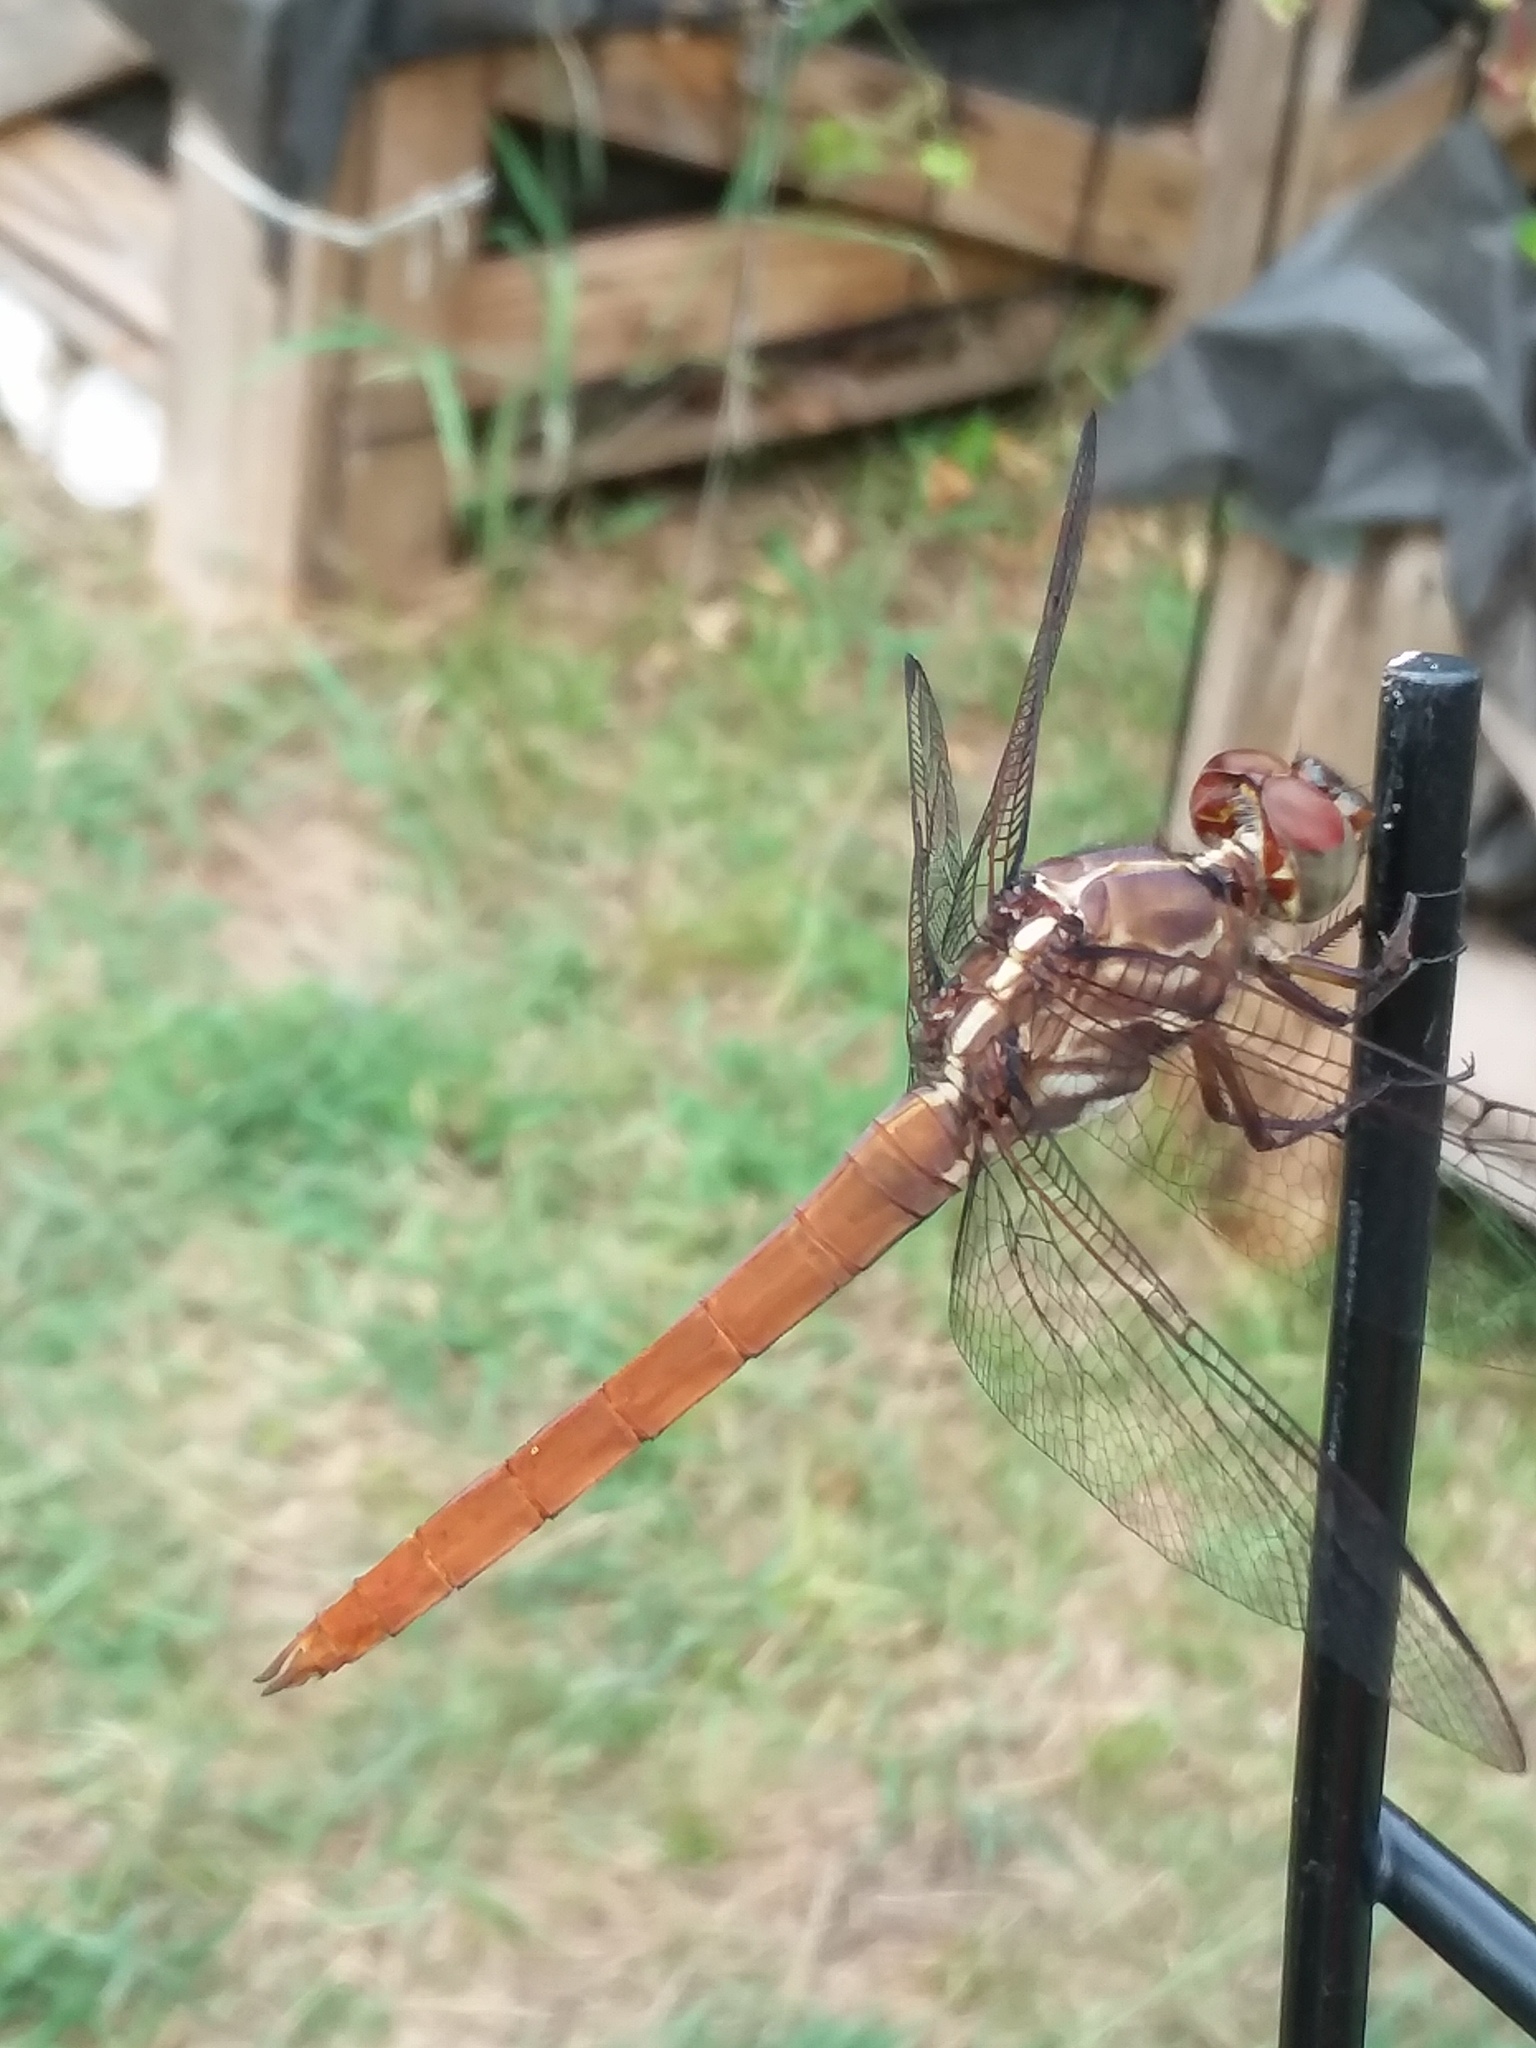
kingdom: Animalia
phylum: Arthropoda
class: Insecta
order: Odonata
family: Libellulidae
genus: Orthemis
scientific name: Orthemis ferruginea
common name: Roseate skimmer
